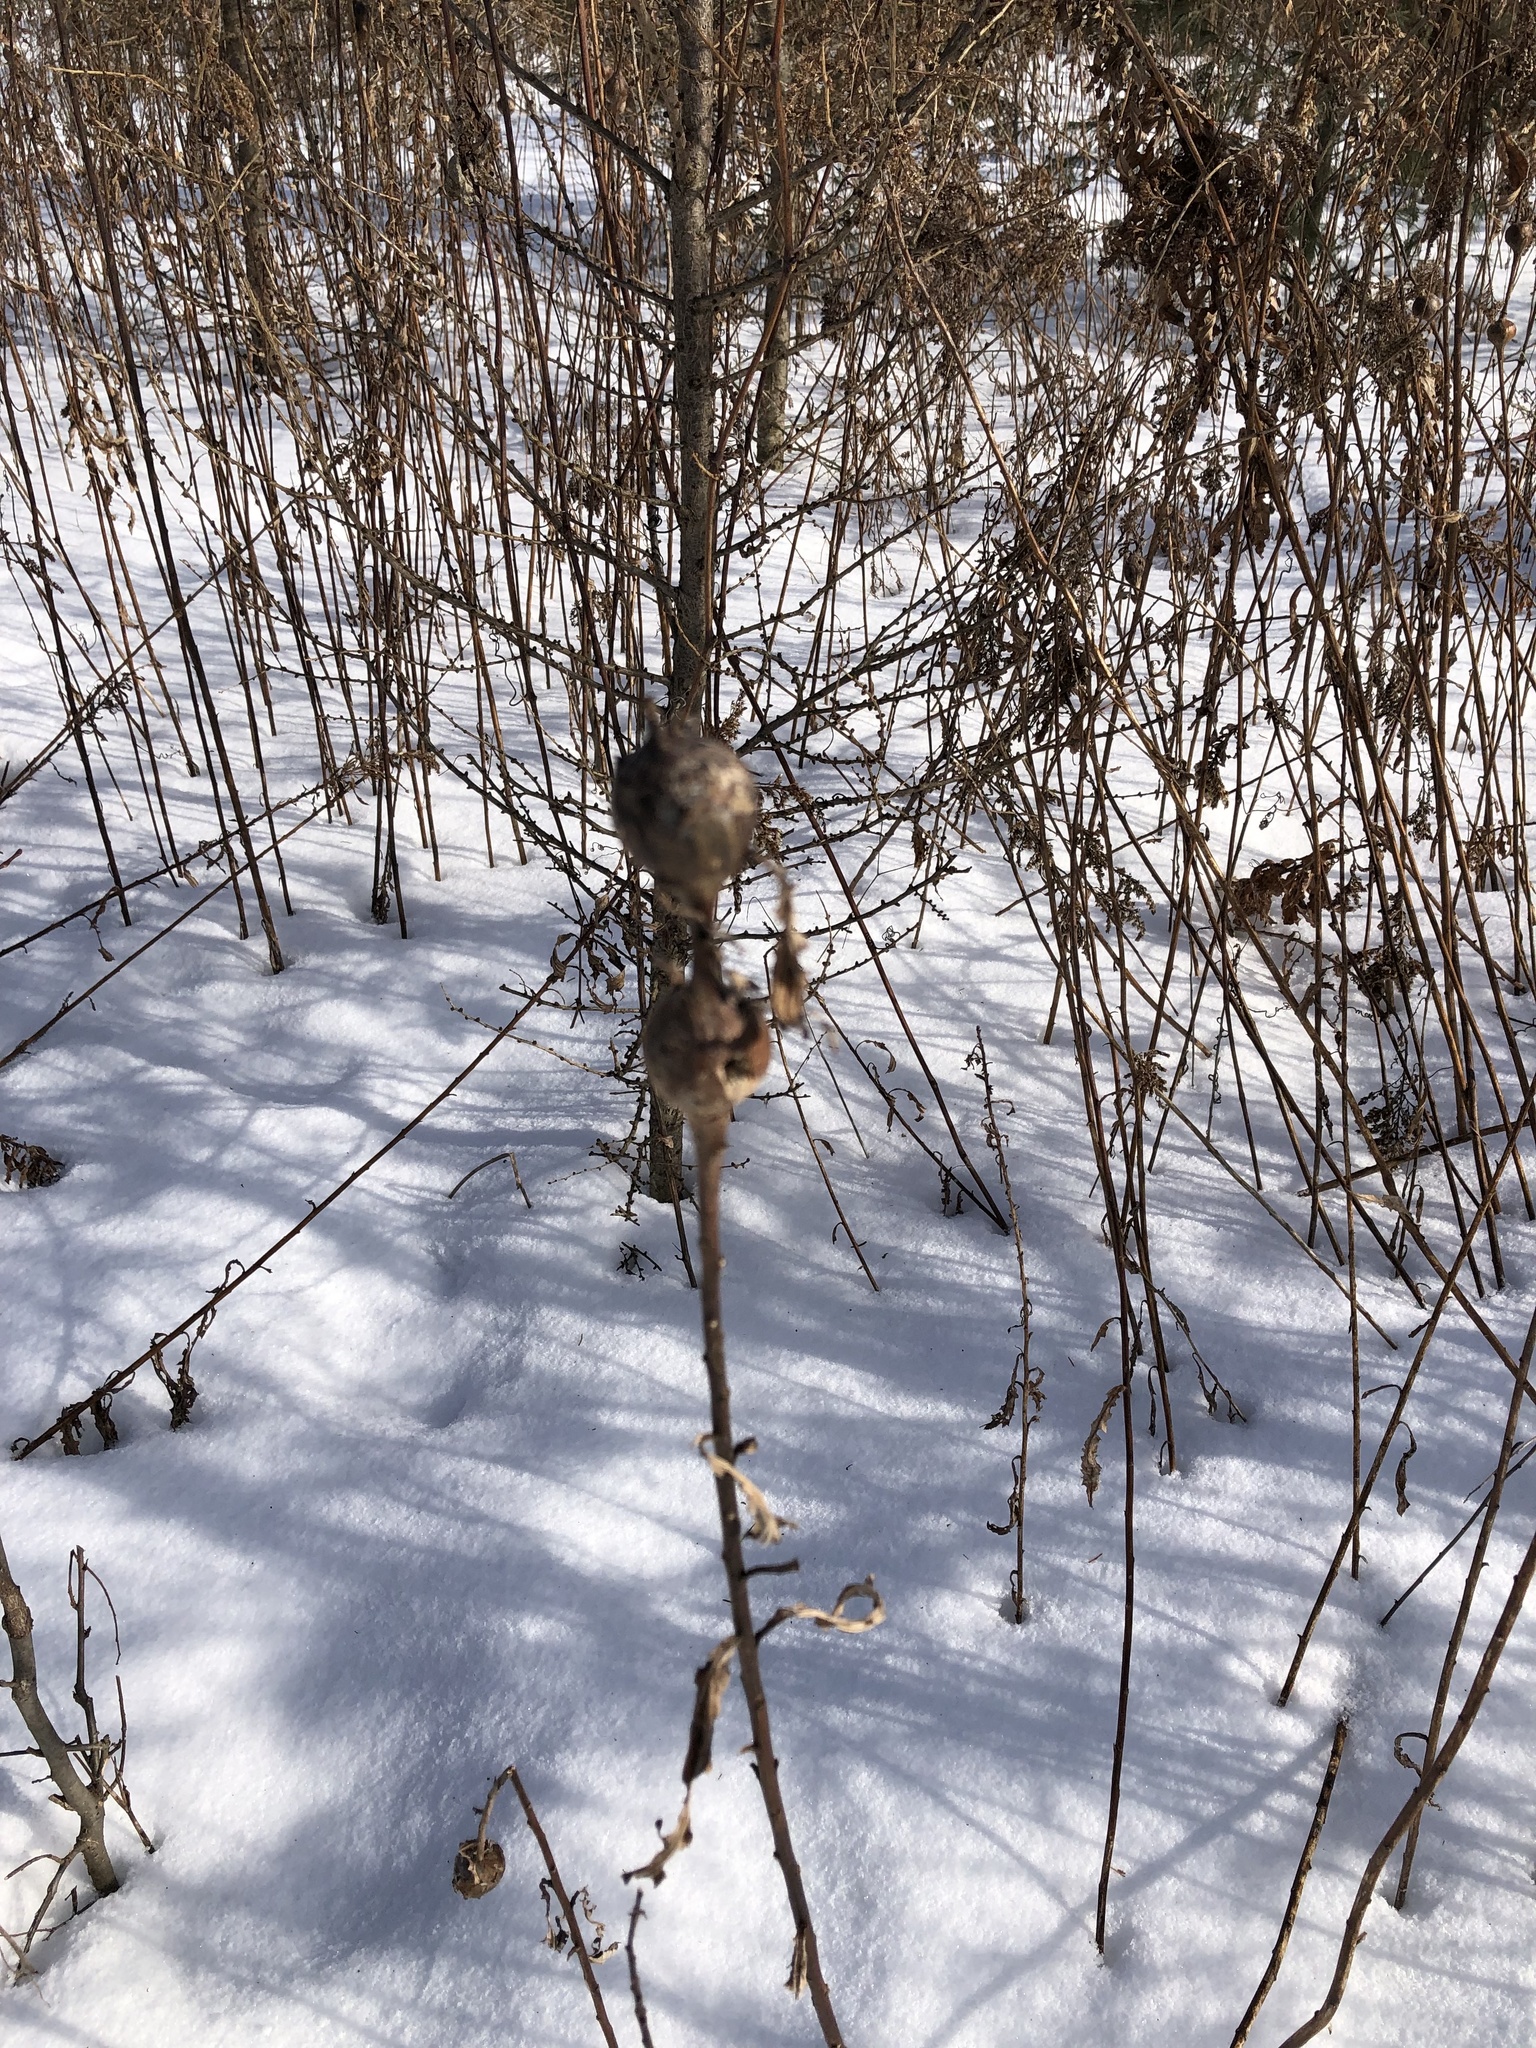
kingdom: Animalia
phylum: Arthropoda
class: Insecta
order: Diptera
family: Tephritidae
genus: Eurosta
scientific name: Eurosta solidaginis
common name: Goldenrod gall fly
